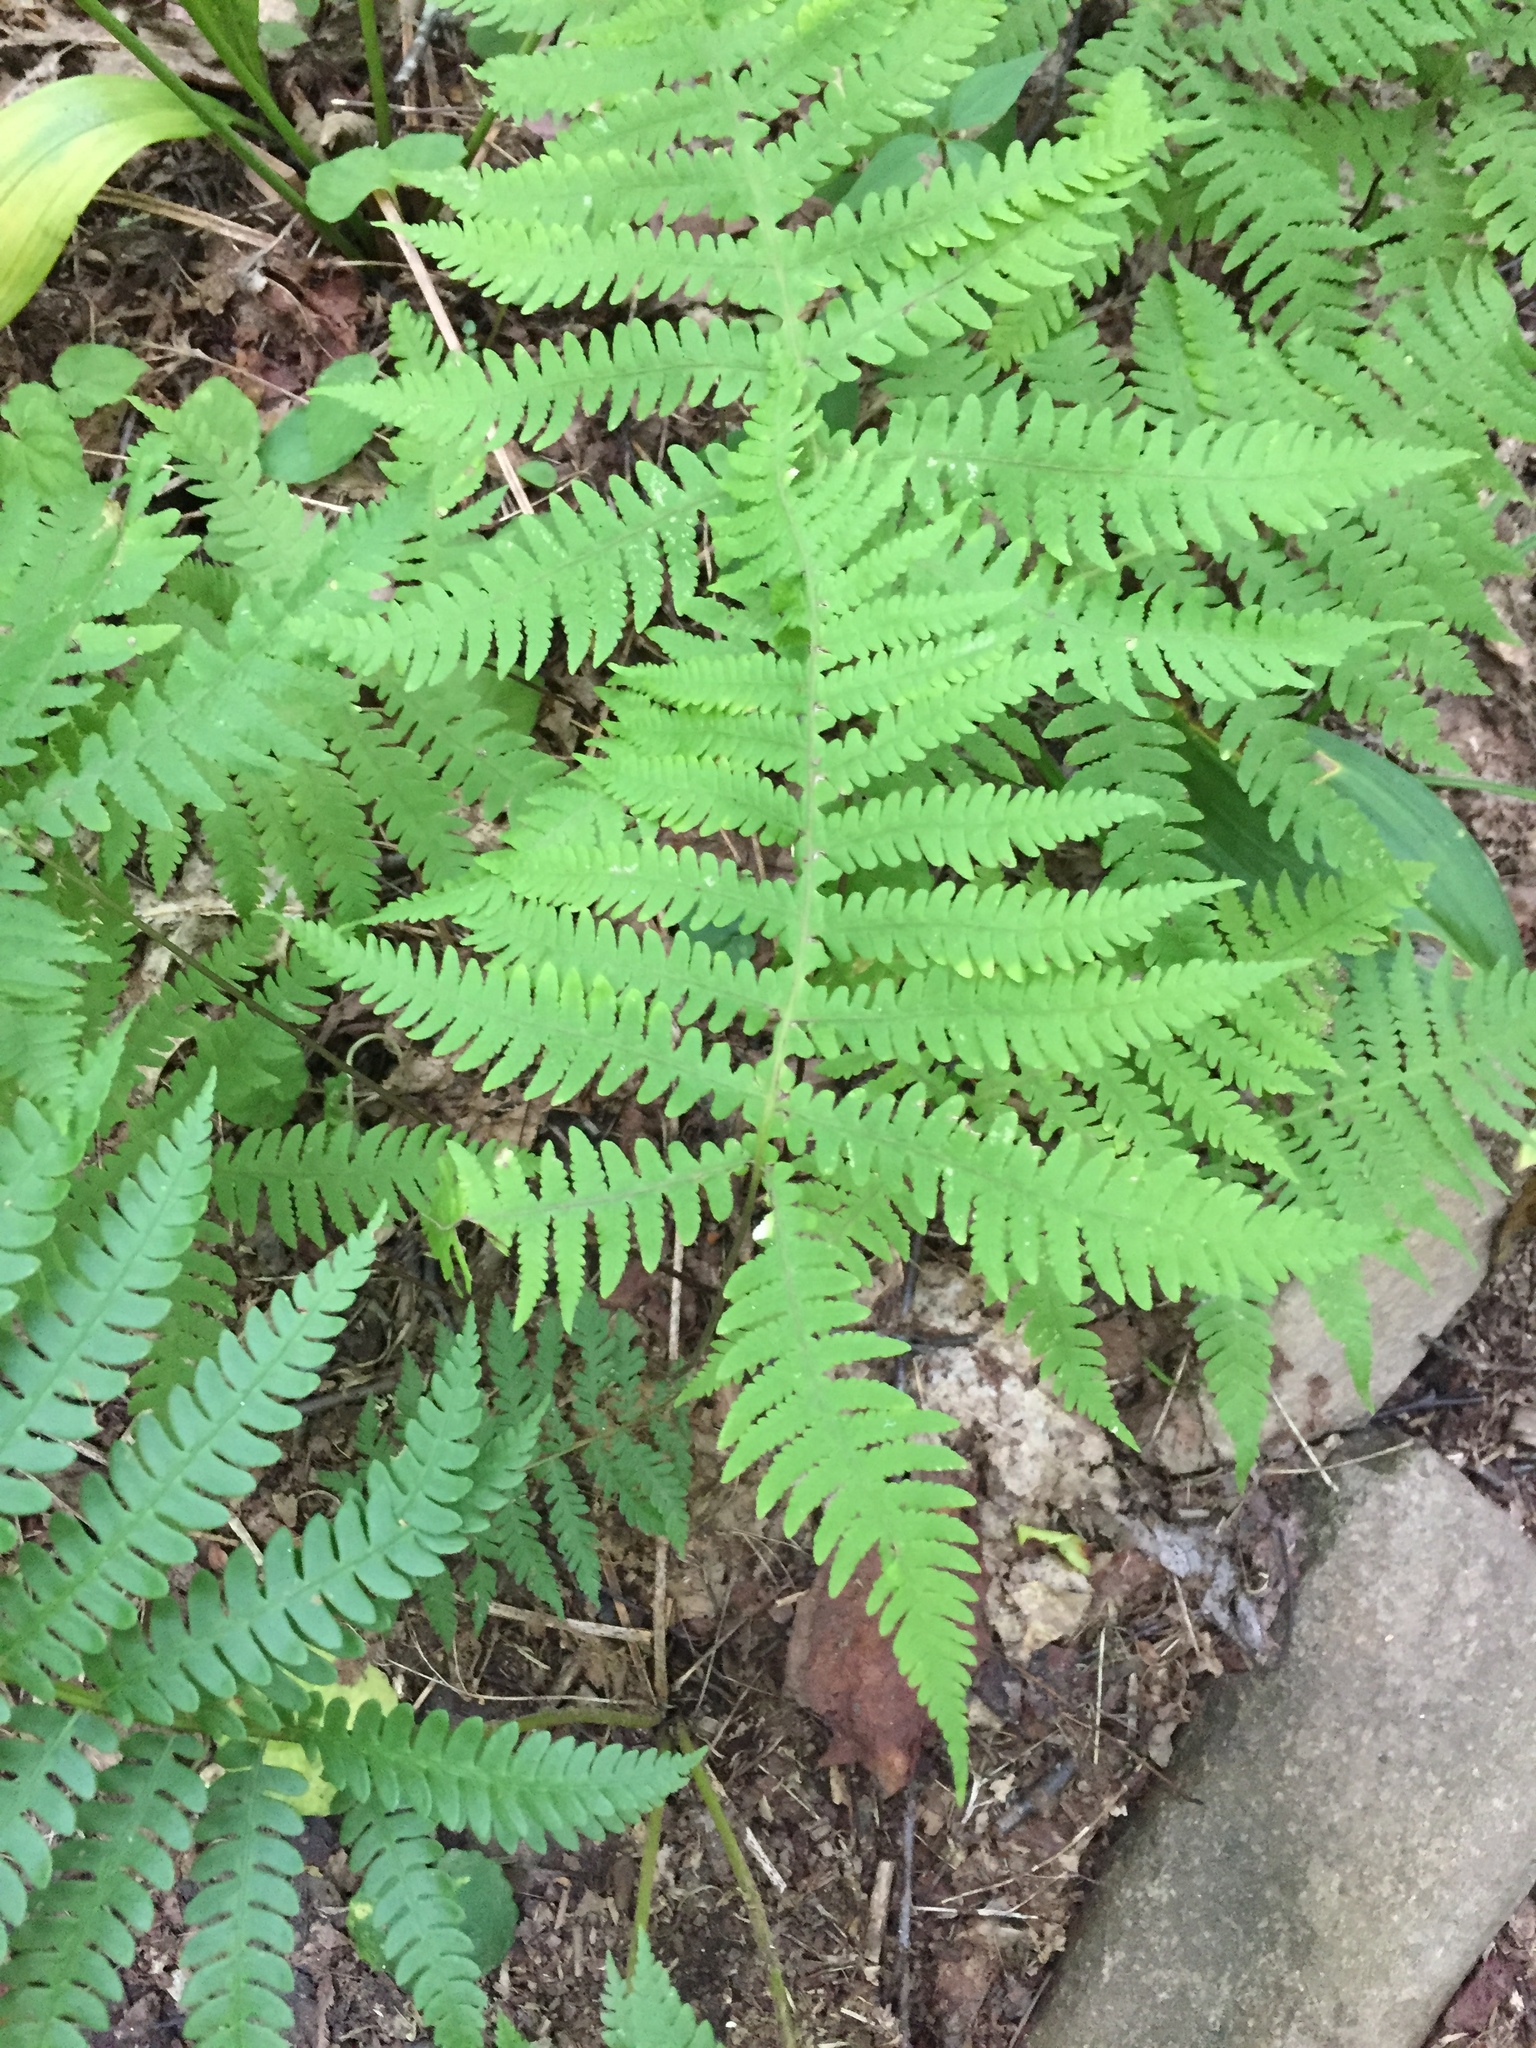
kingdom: Plantae
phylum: Tracheophyta
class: Polypodiopsida
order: Polypodiales
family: Thelypteridaceae
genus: Phegopteris
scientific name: Phegopteris hexagonoptera
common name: Broad beech fern
